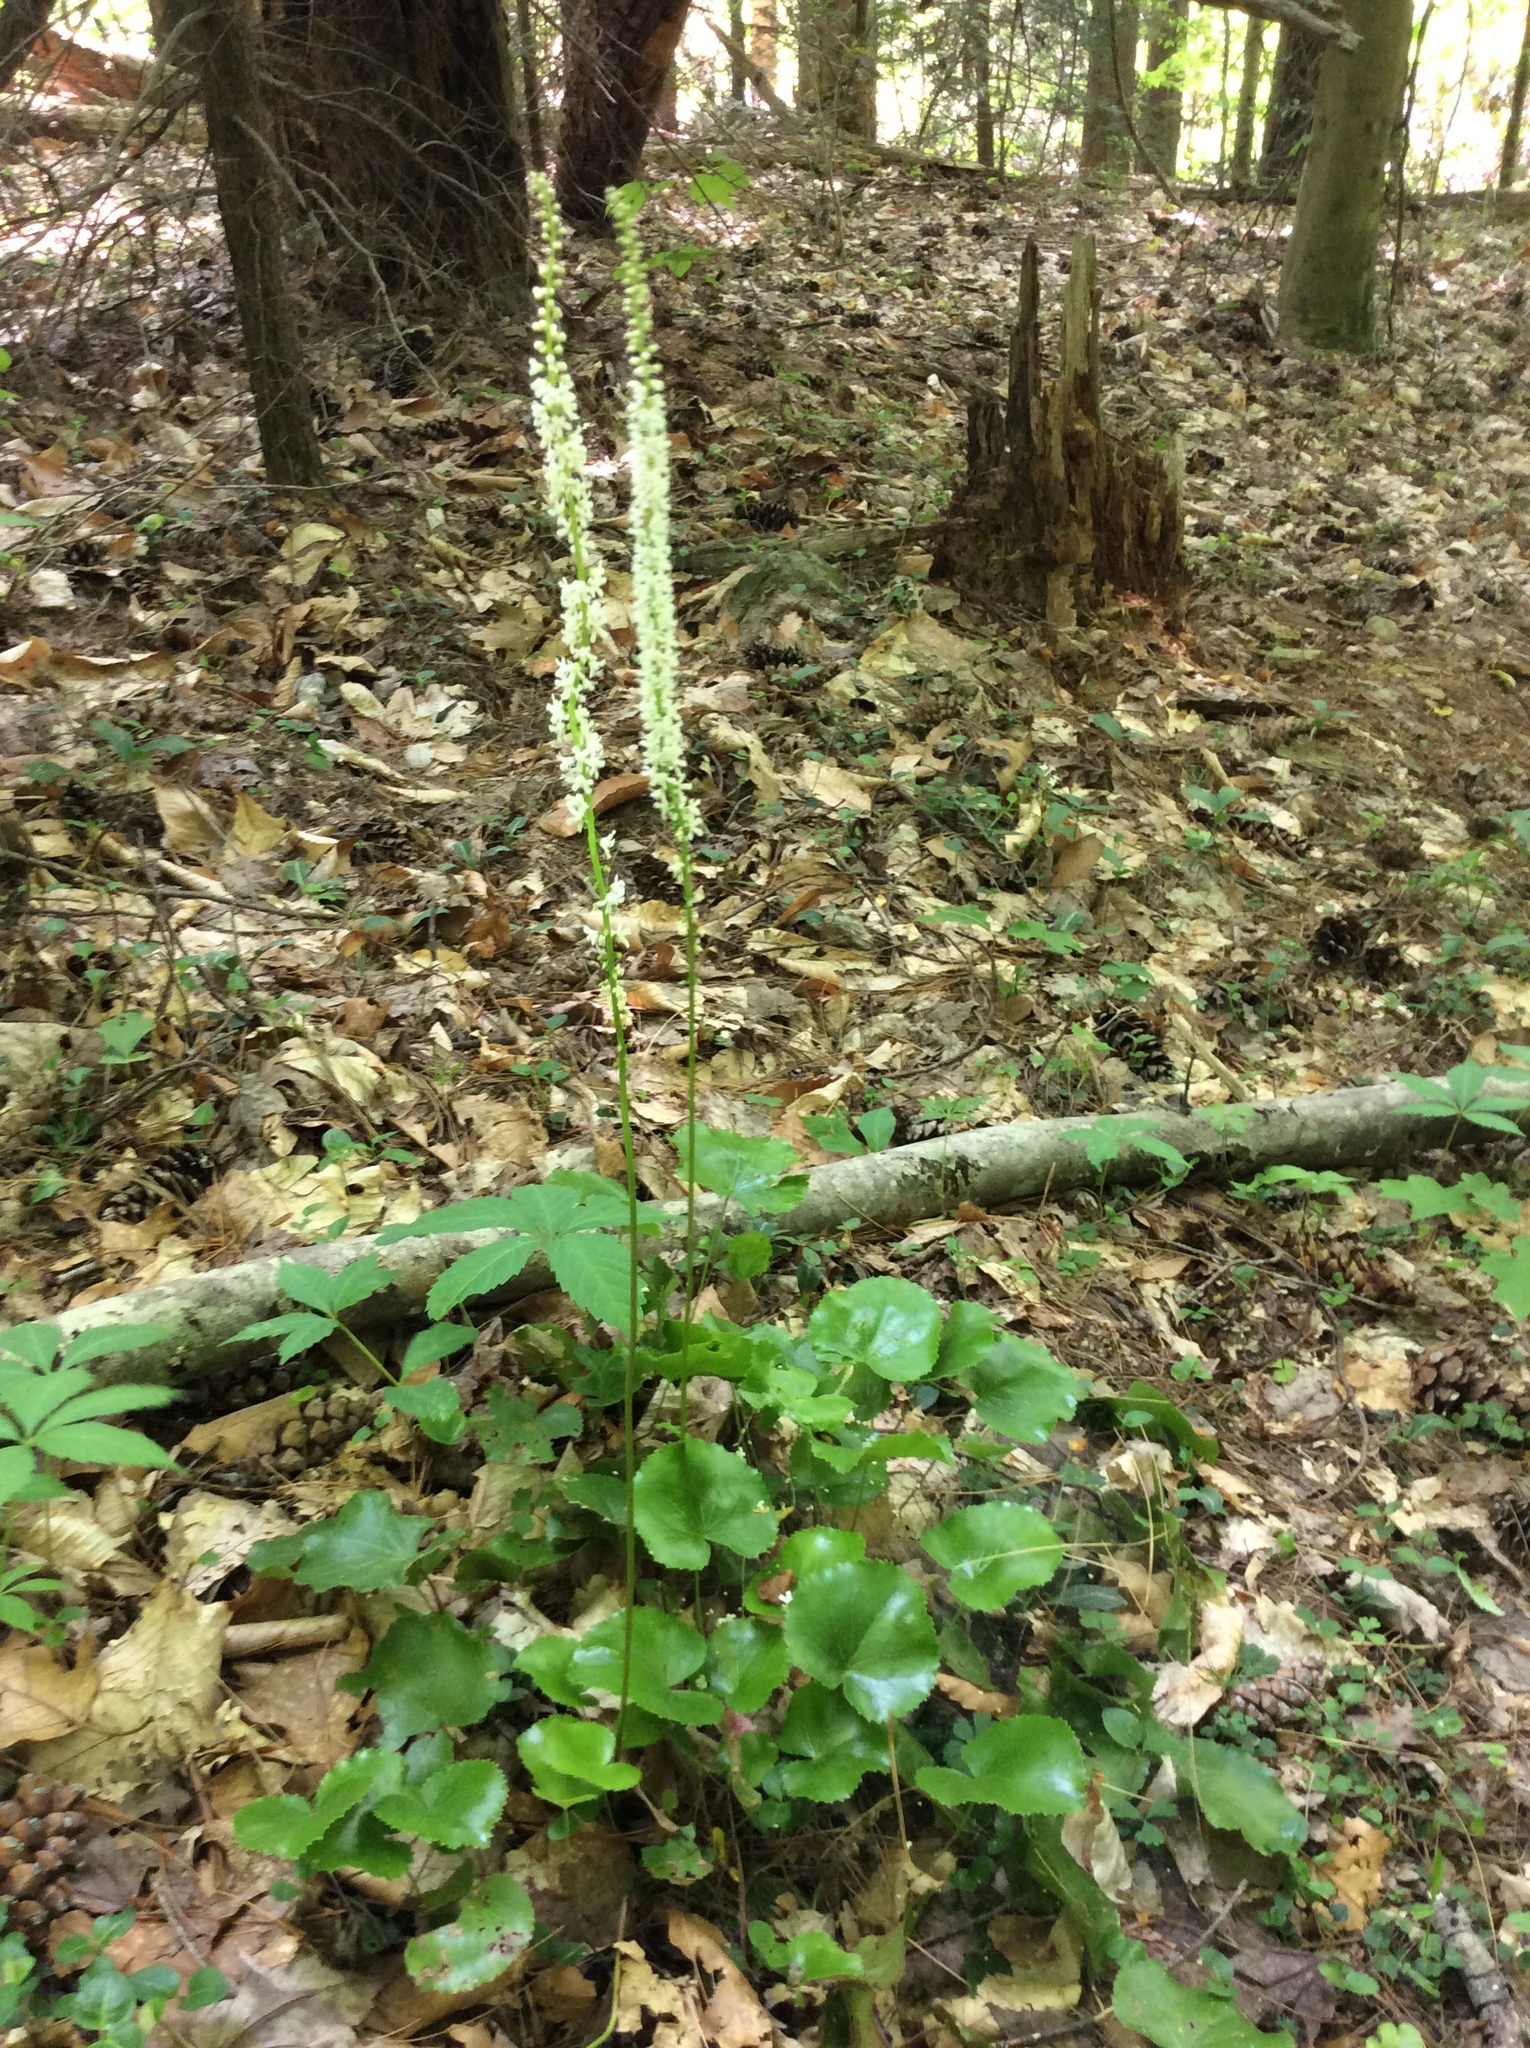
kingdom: Plantae
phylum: Tracheophyta
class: Magnoliopsida
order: Ericales
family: Diapensiaceae
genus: Galax
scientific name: Galax urceolata
